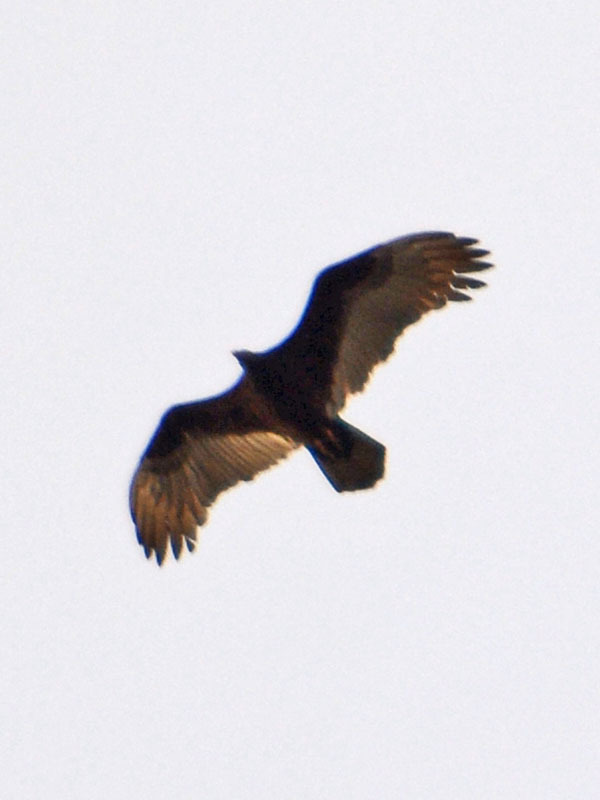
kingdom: Animalia
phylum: Chordata
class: Aves
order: Accipitriformes
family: Cathartidae
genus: Cathartes
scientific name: Cathartes aura
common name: Turkey vulture
